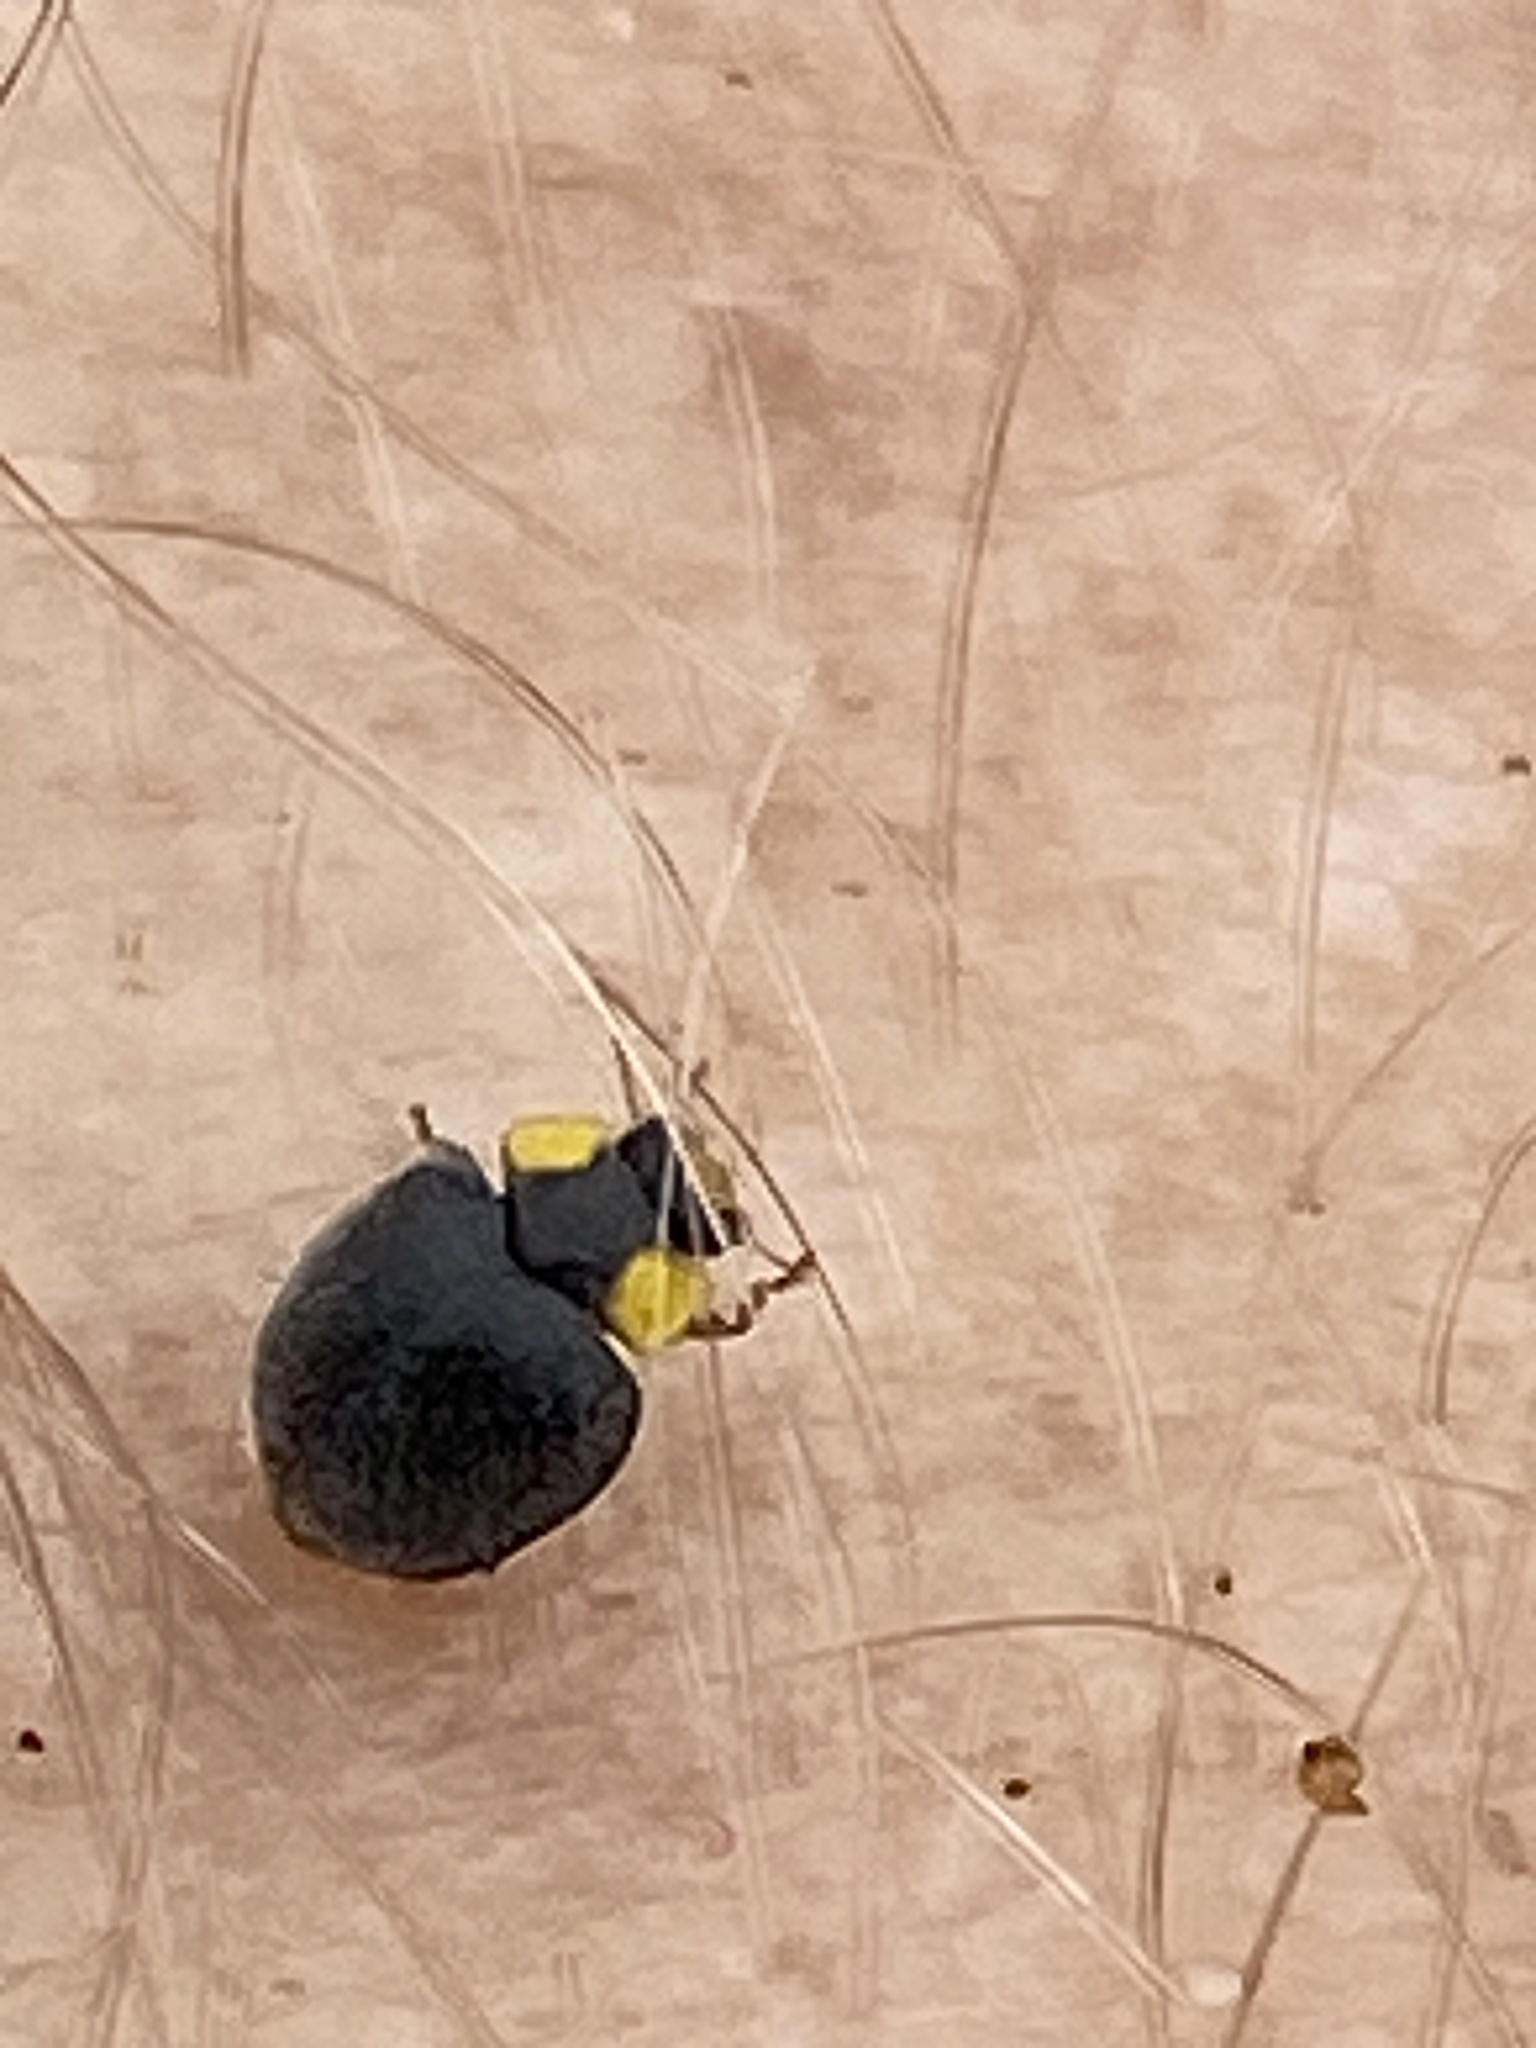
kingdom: Animalia
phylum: Arthropoda
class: Insecta
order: Coleoptera
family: Coccinellidae
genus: Scymnodes
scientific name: Scymnodes lividigaster
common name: Yellowshouldered lady beetle
